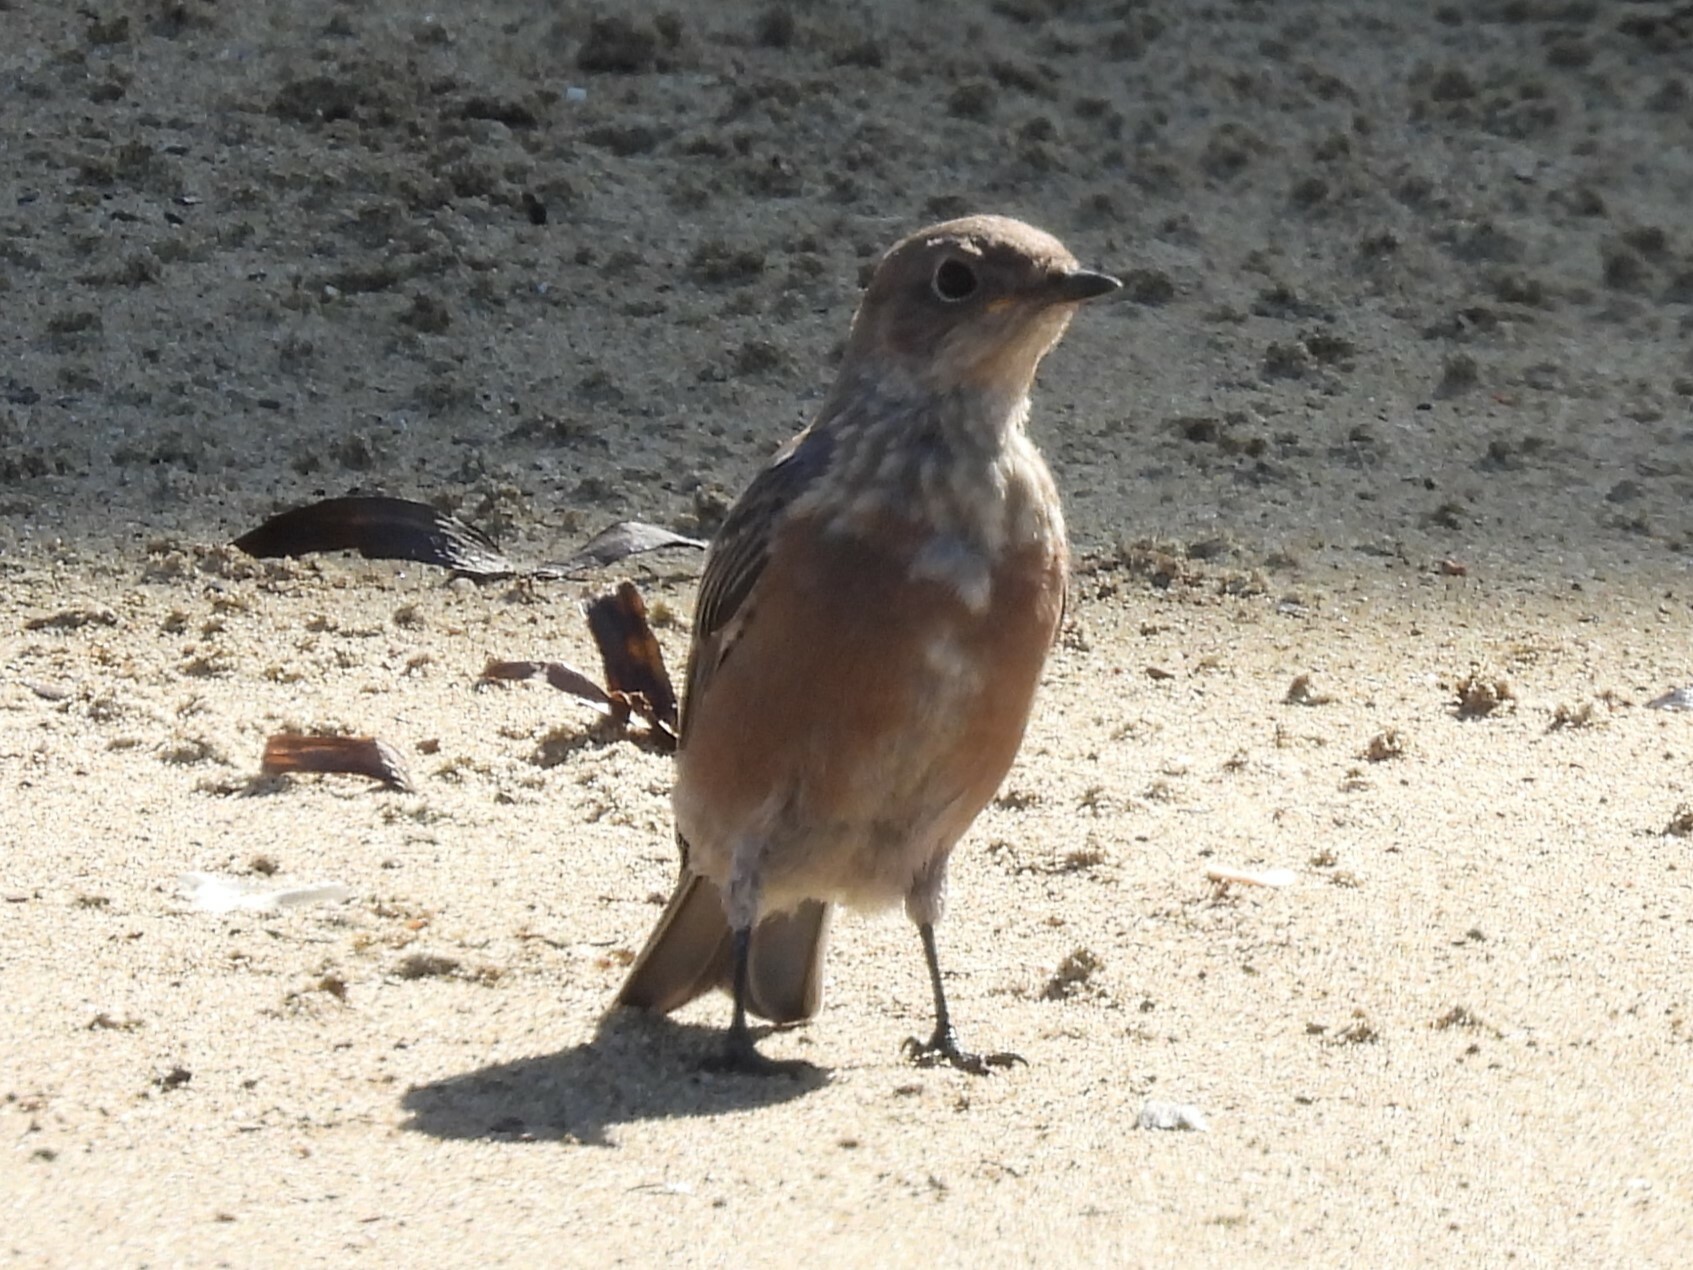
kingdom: Animalia
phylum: Chordata
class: Aves
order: Passeriformes
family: Turdidae
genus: Sialia
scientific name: Sialia mexicana
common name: Western bluebird
